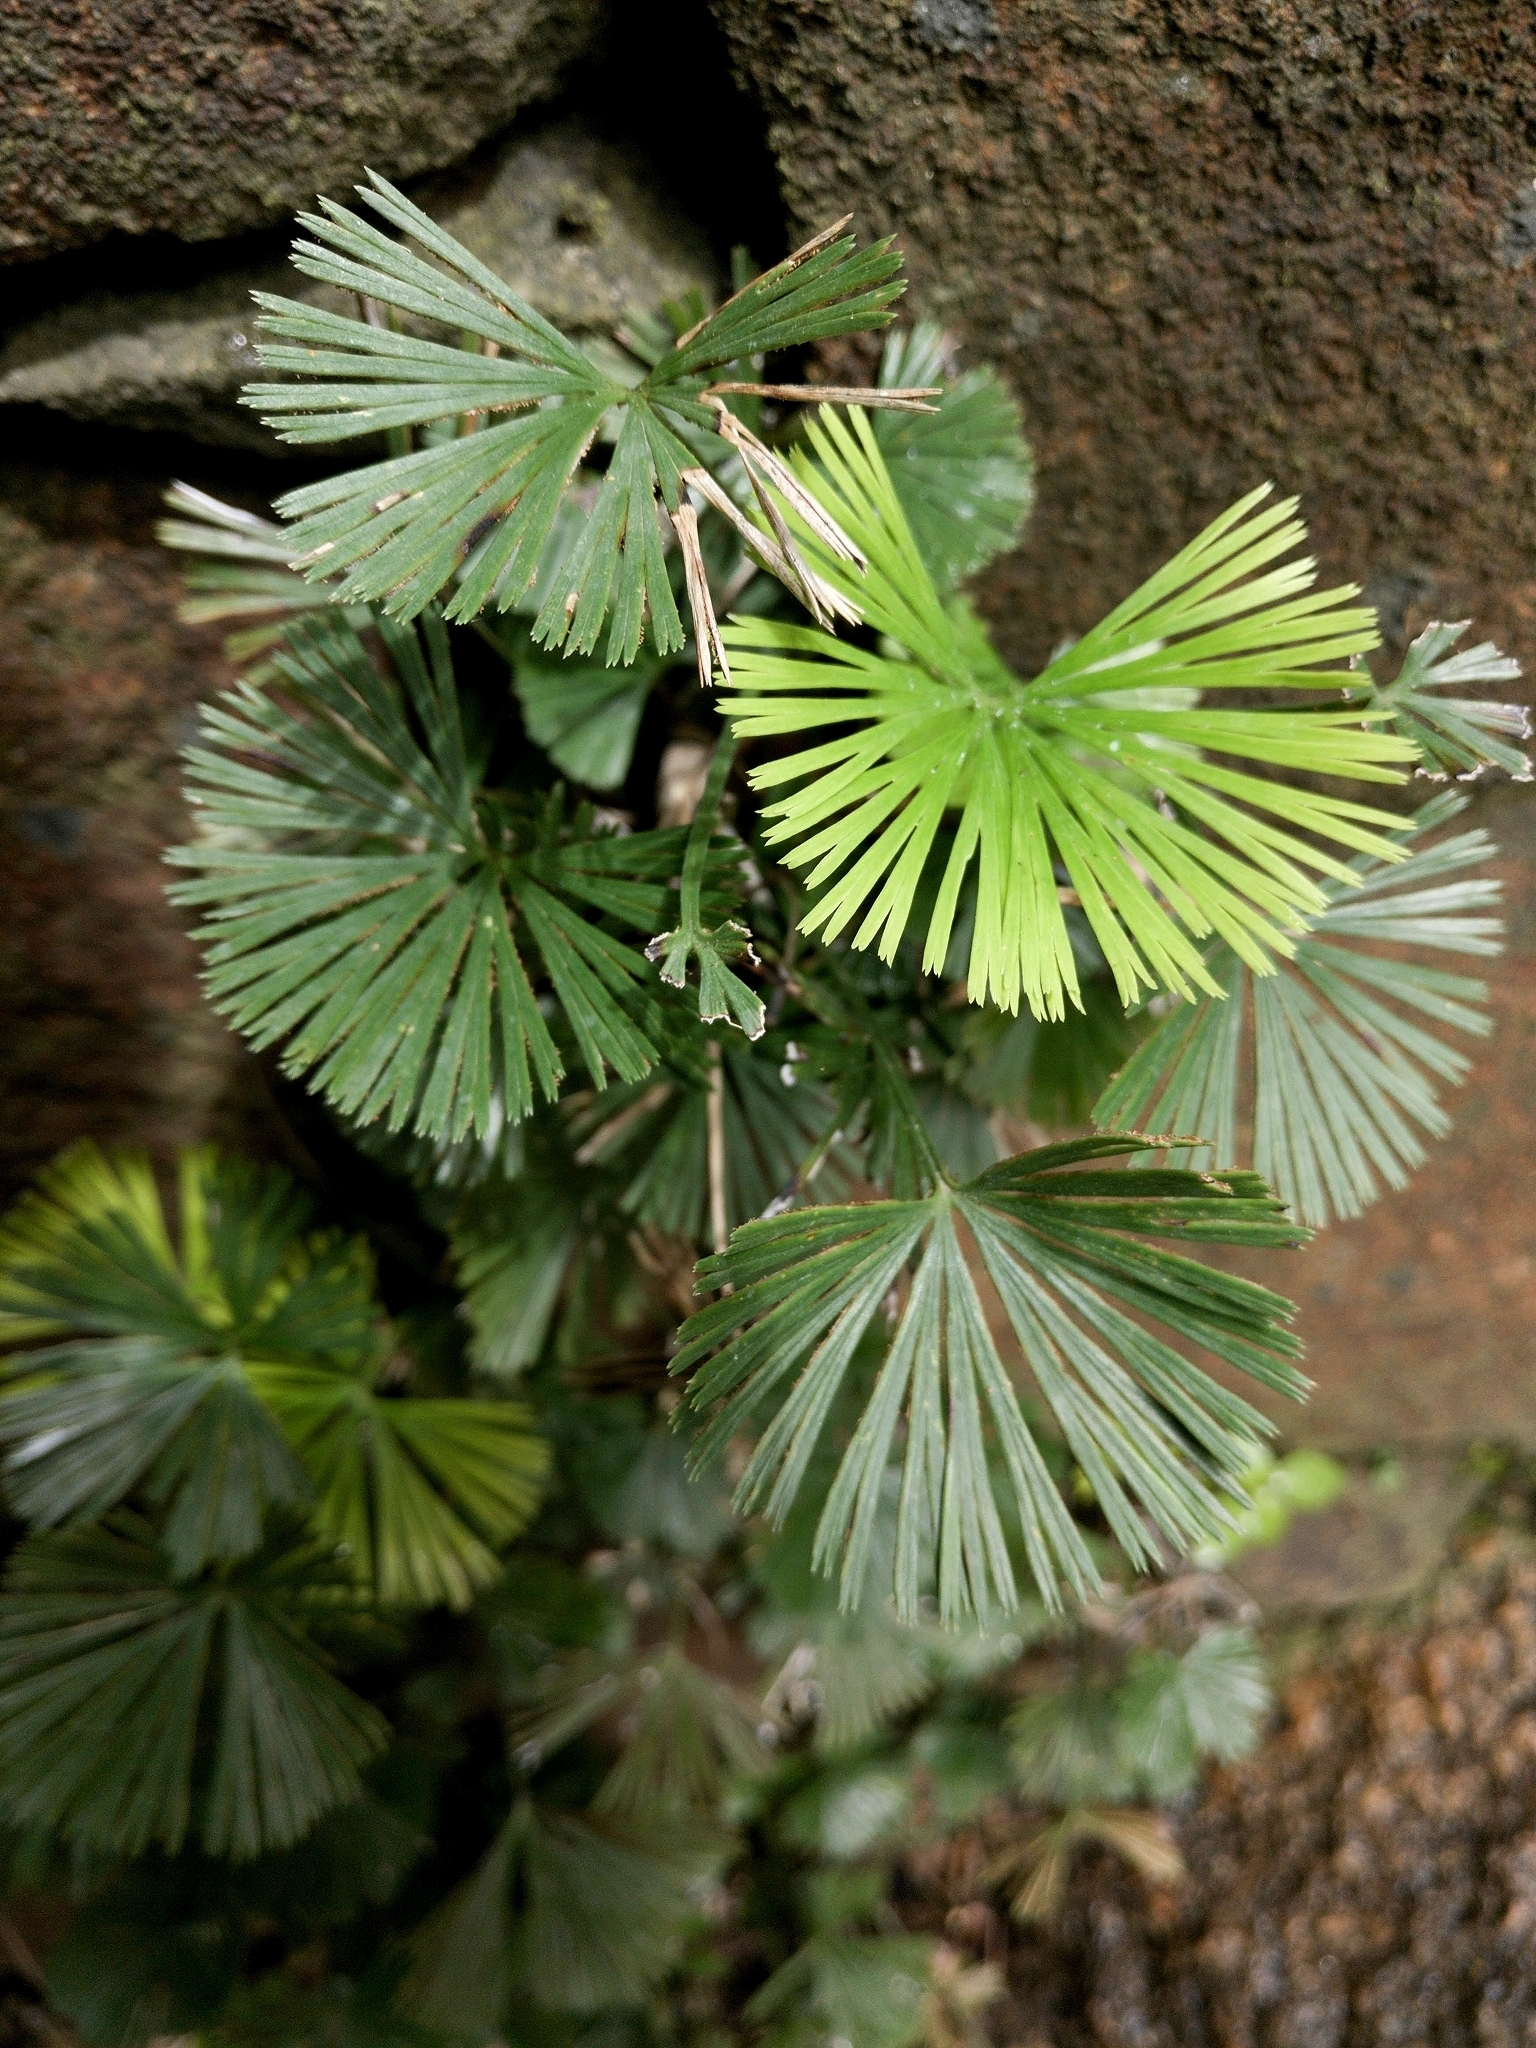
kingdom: Plantae
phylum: Tracheophyta
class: Polypodiopsida
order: Polypodiales
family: Pteridaceae
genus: Actiniopteris
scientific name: Actiniopteris radiata
